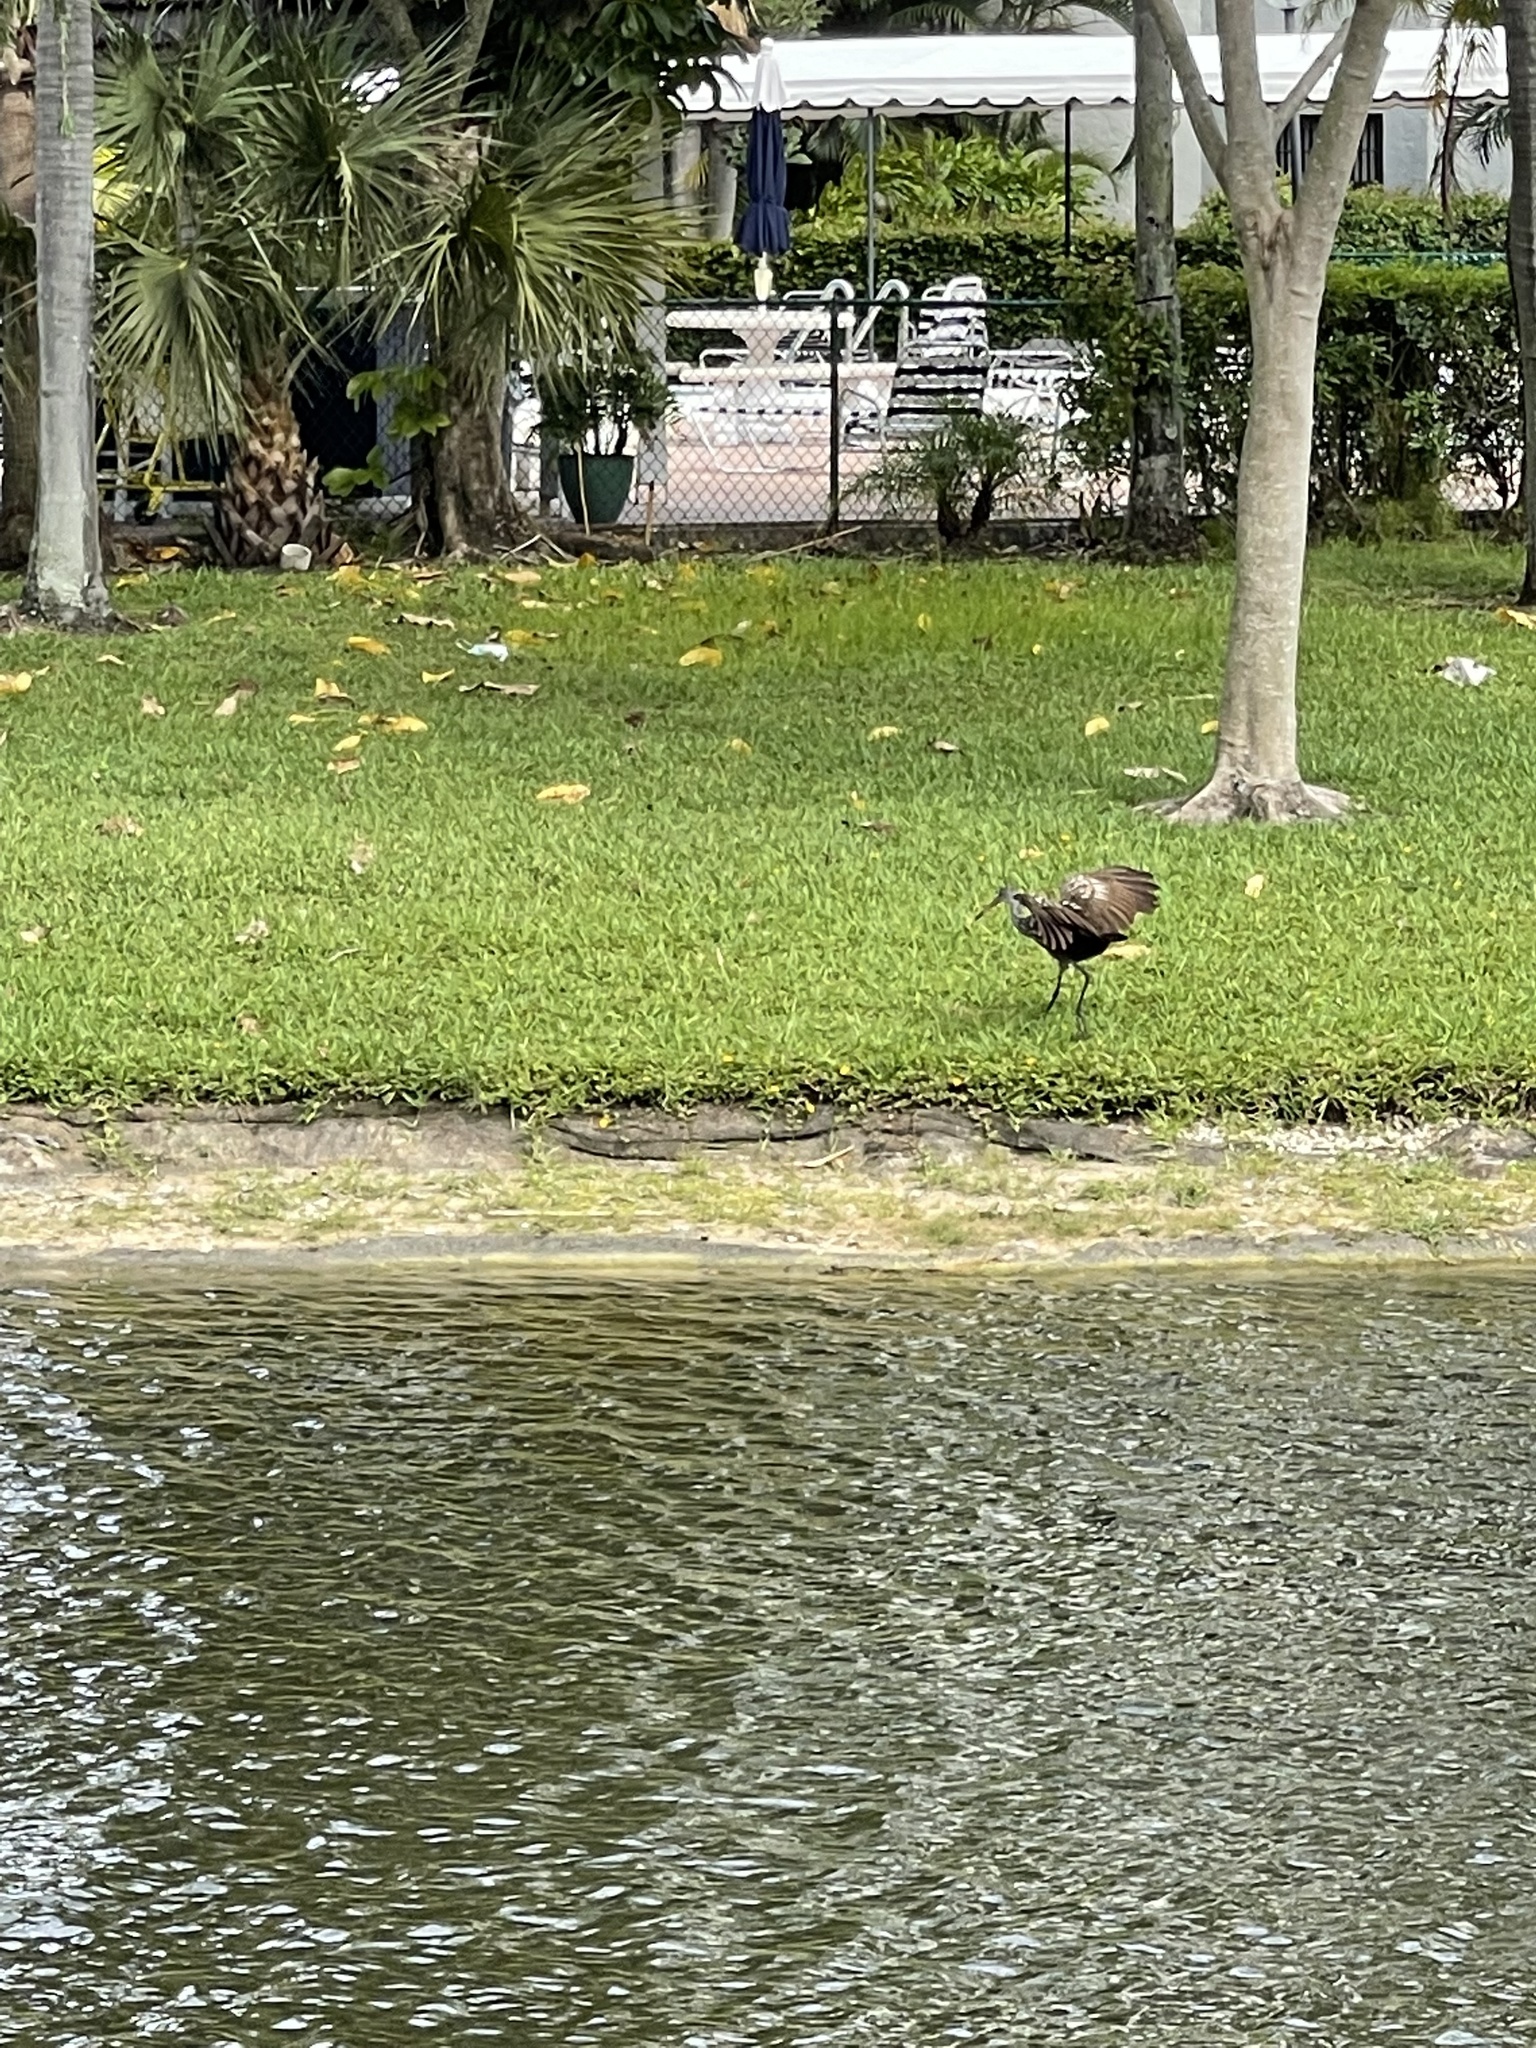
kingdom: Animalia
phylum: Chordata
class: Aves
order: Gruiformes
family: Aramidae
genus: Aramus
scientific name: Aramus guarauna
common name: Limpkin
